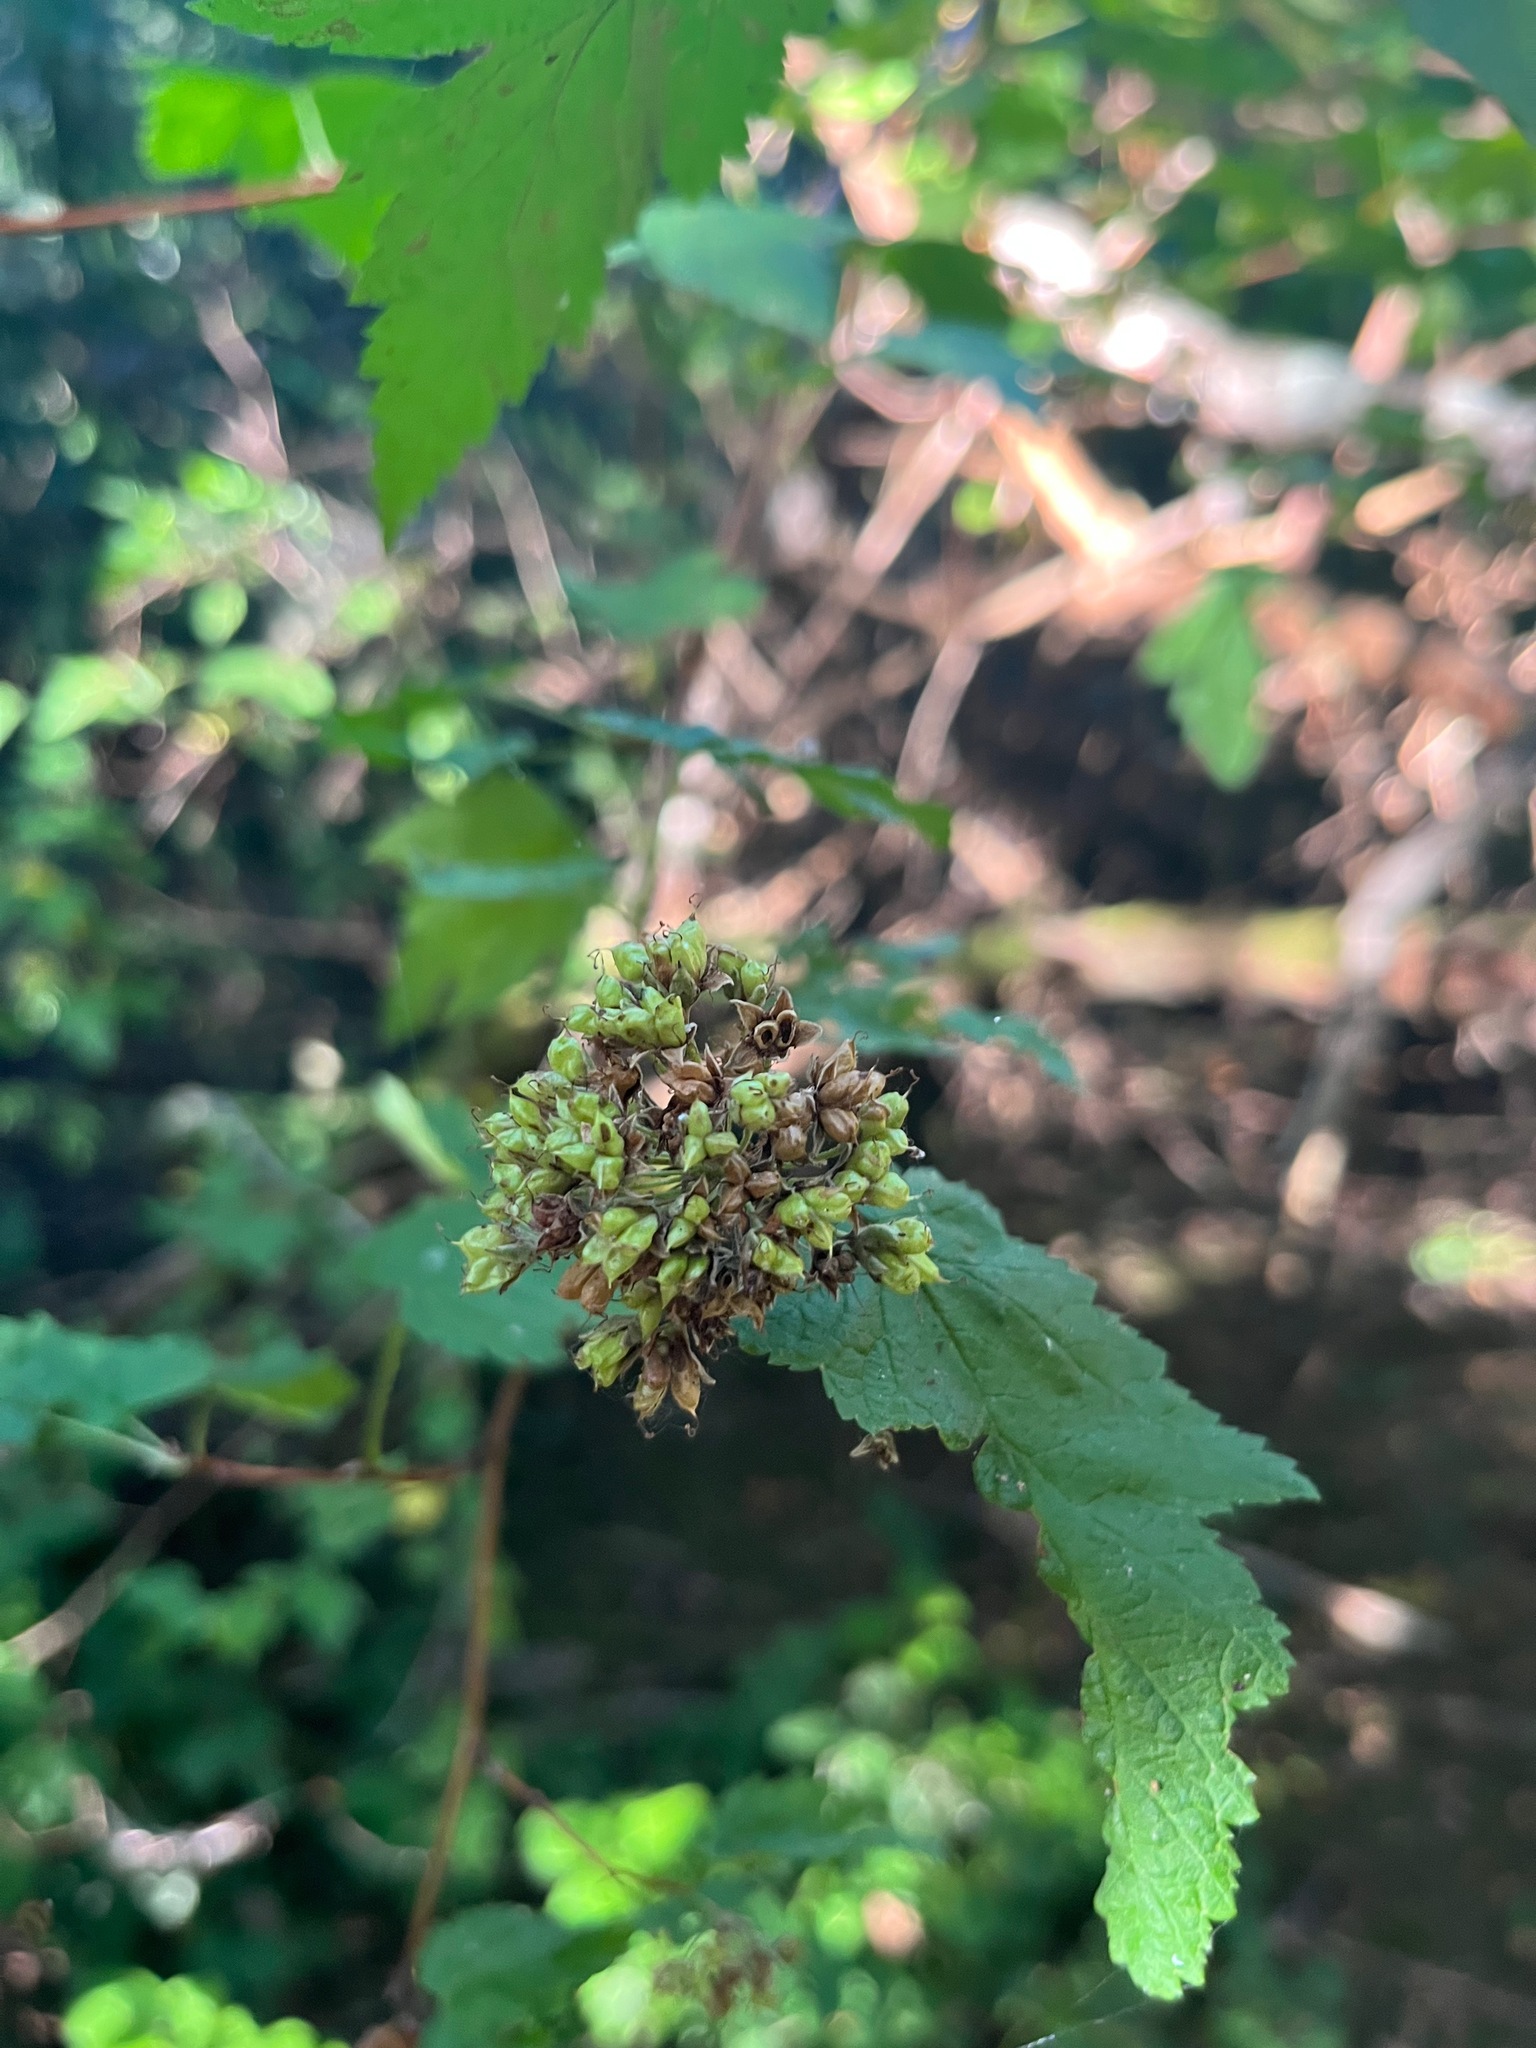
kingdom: Plantae
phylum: Tracheophyta
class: Magnoliopsida
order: Rosales
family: Rosaceae
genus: Physocarpus
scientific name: Physocarpus capitatus
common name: Pacific ninebark
